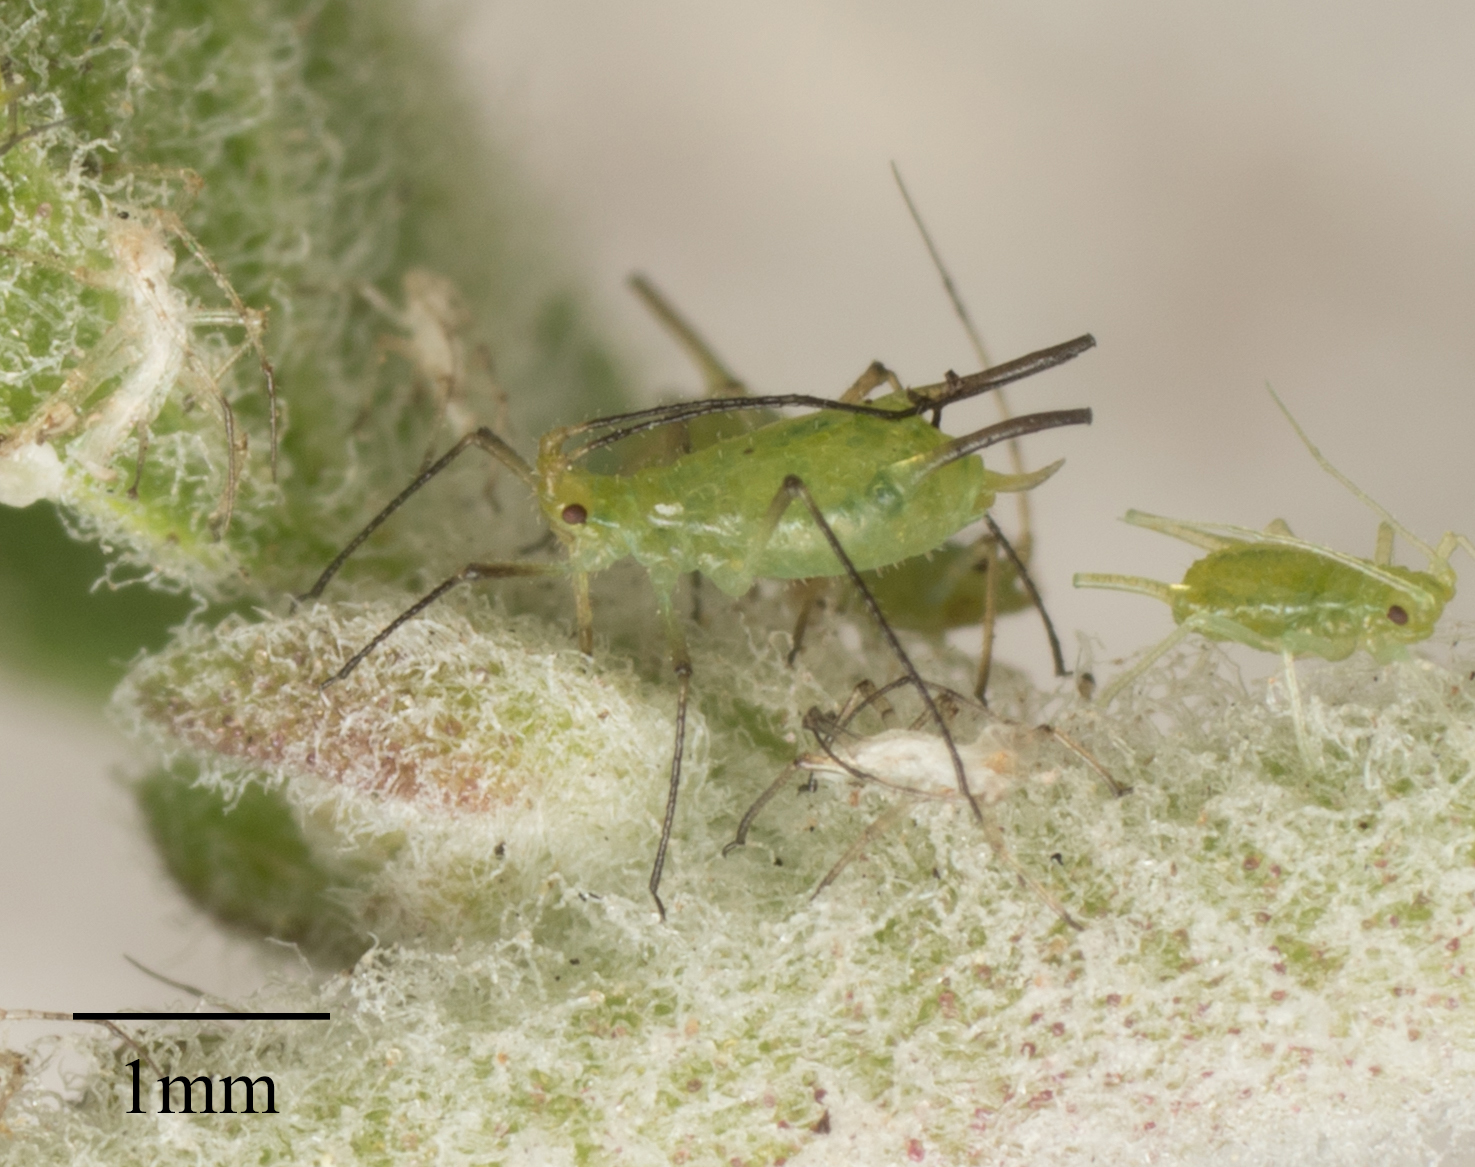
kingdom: Animalia
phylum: Arthropoda
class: Insecta
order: Hemiptera
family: Aphididae
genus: Uroleucon
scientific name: Uroleucon erigeronense
